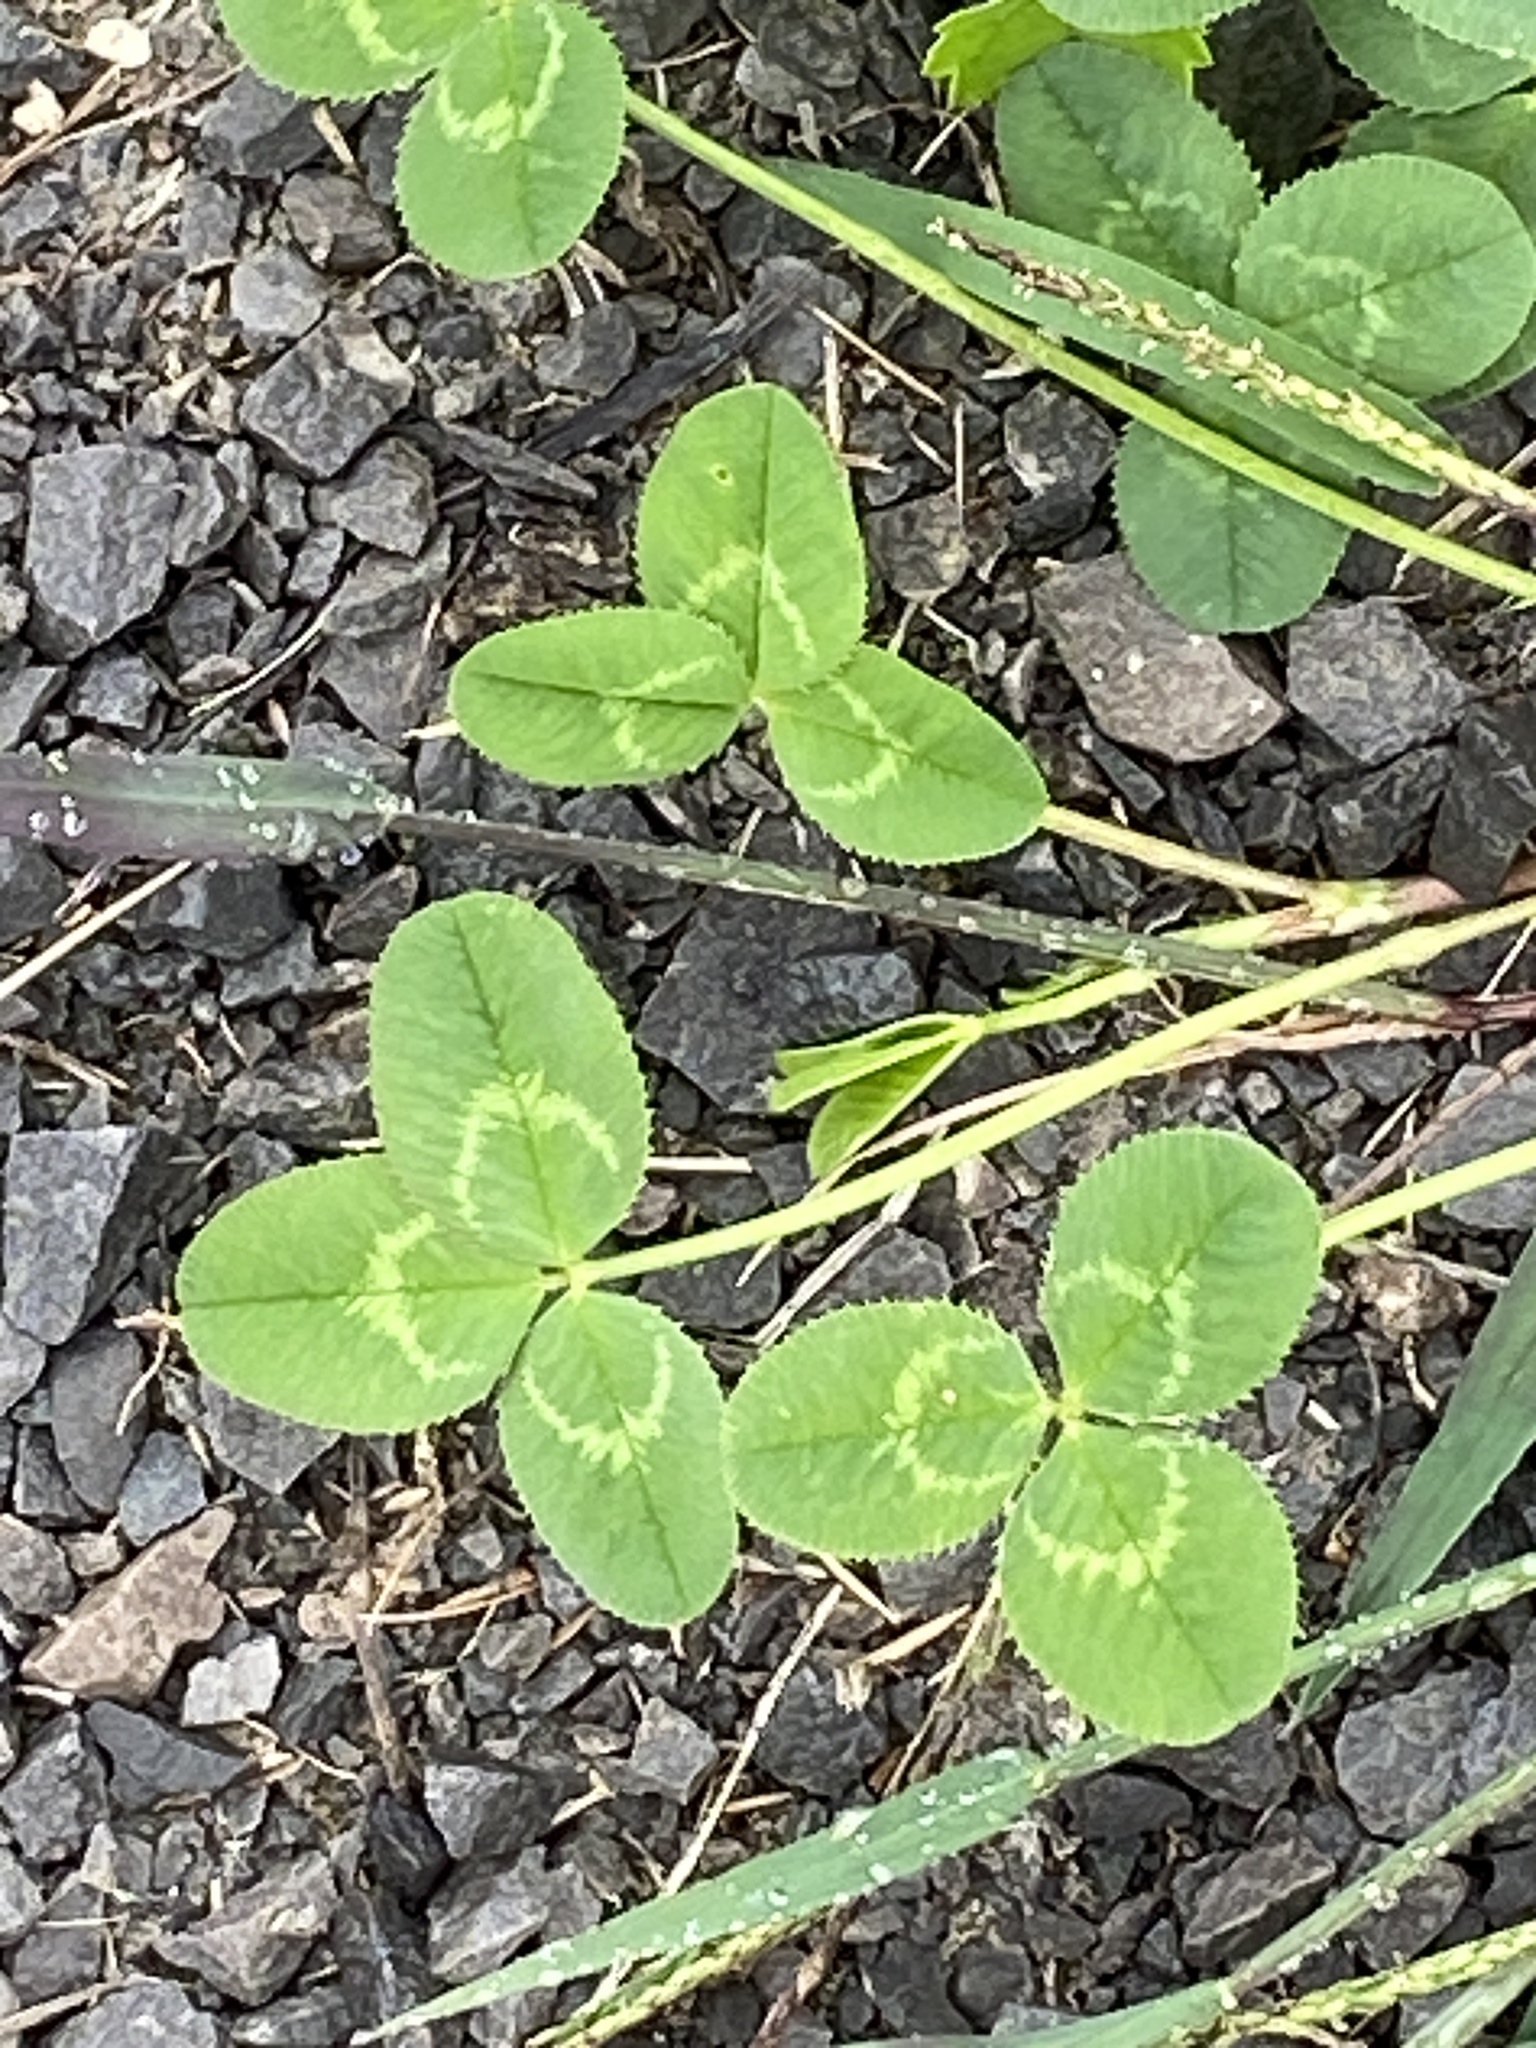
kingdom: Plantae
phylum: Tracheophyta
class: Magnoliopsida
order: Fabales
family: Fabaceae
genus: Trifolium
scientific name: Trifolium repens
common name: White clover
